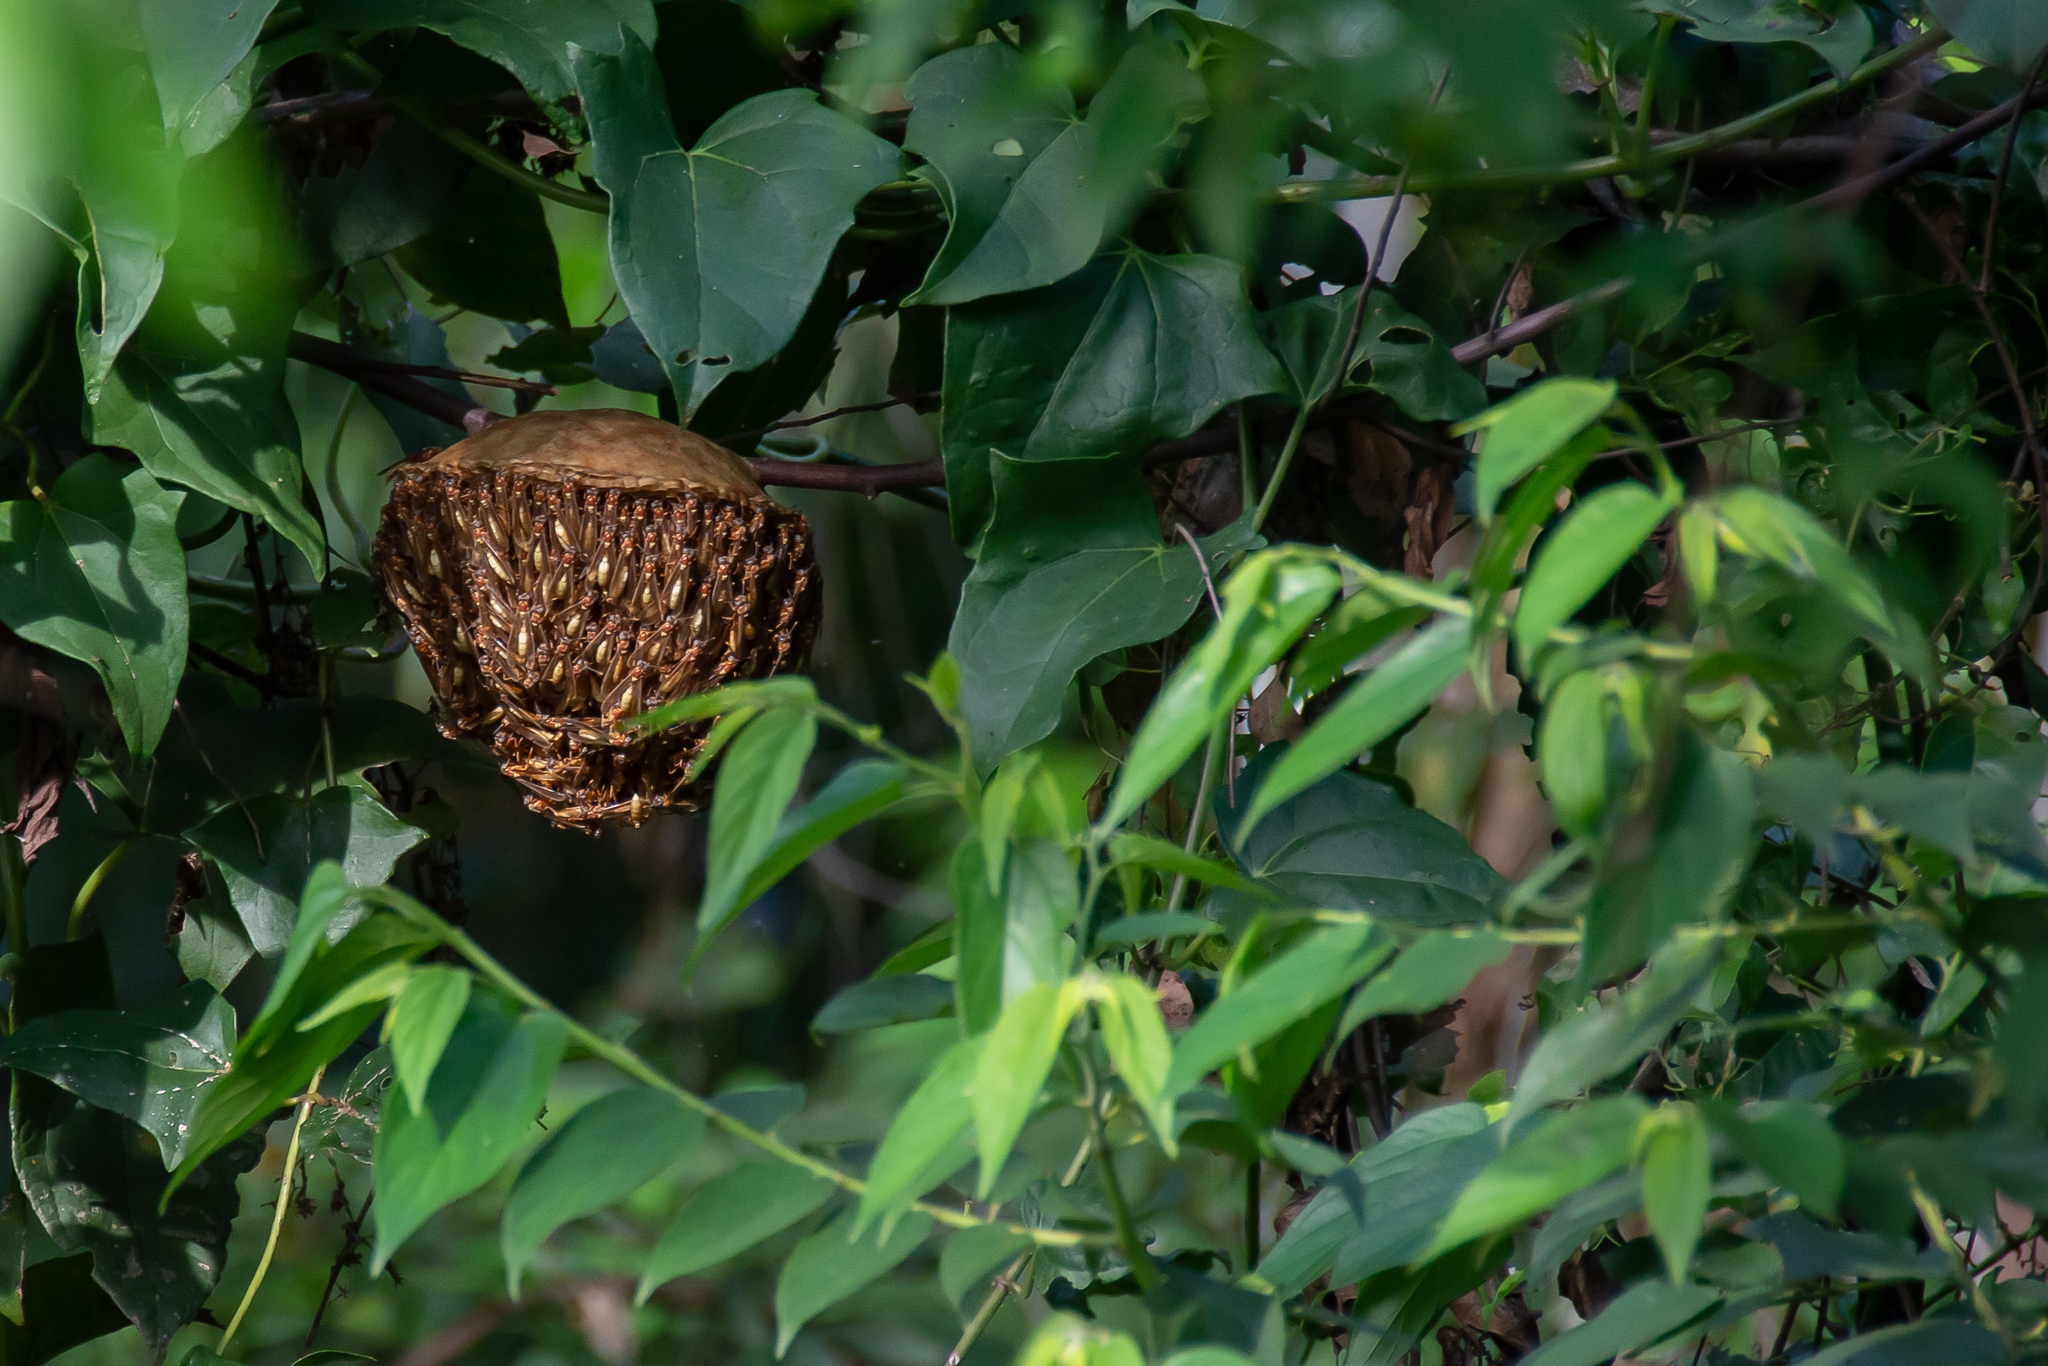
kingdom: Animalia
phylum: Arthropoda
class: Insecta
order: Hymenoptera
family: Vespidae
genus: Apoica
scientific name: Apoica gelida
